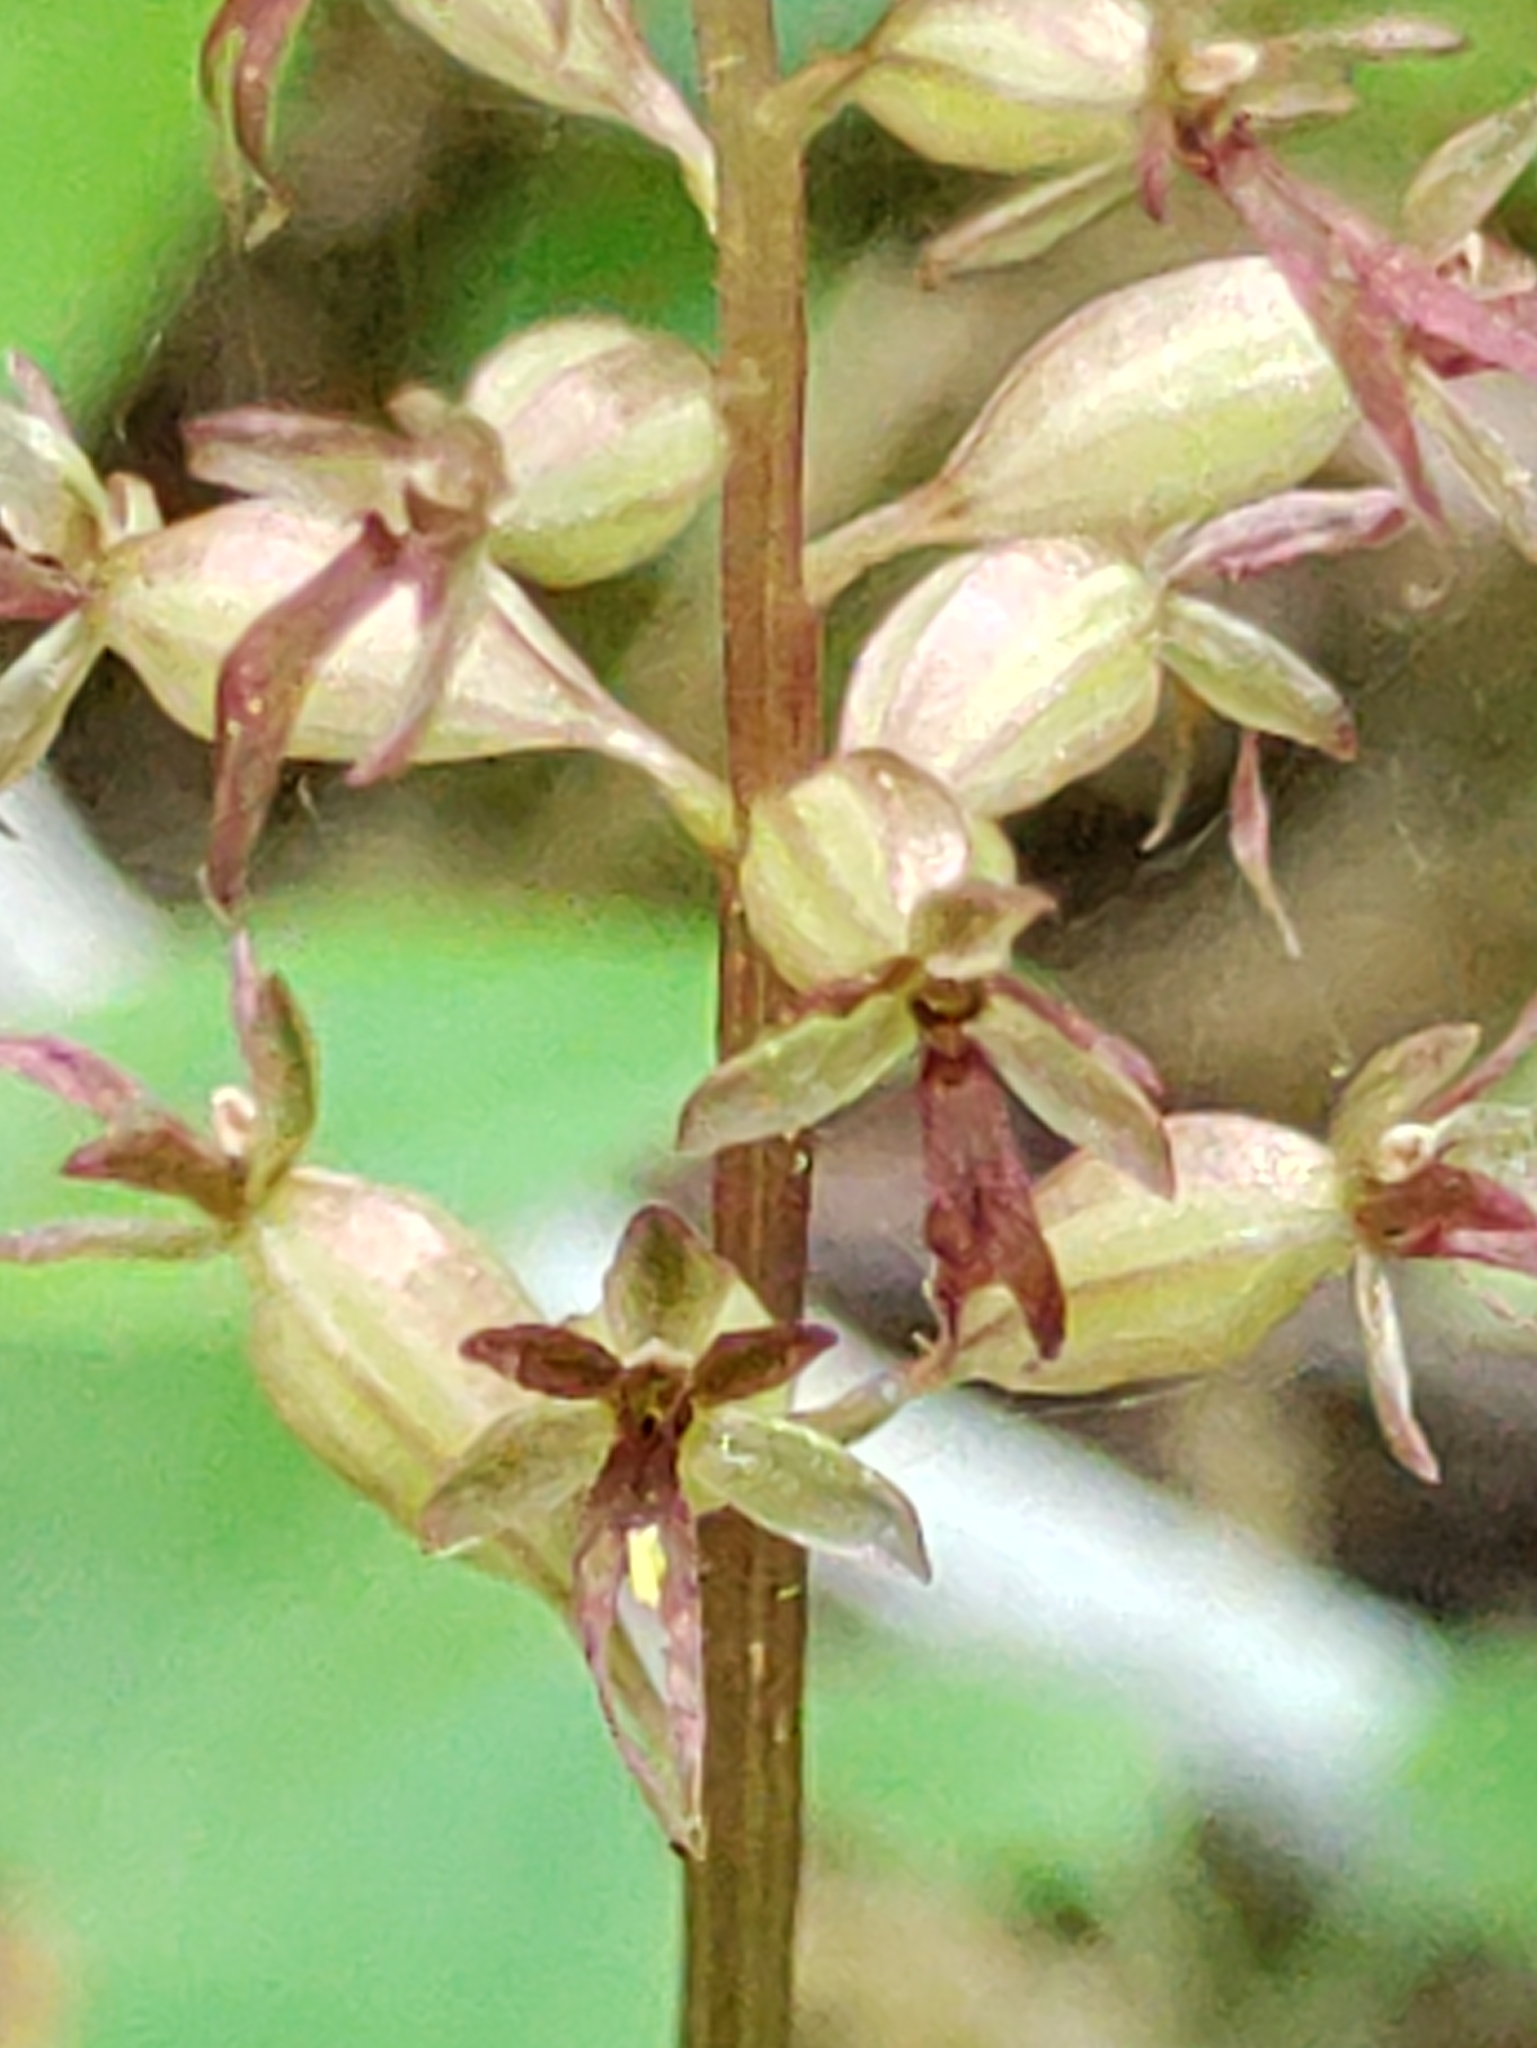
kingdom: Plantae
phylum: Tracheophyta
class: Liliopsida
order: Asparagales
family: Orchidaceae
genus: Neottia
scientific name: Neottia cordata
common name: Lesser twayblade
